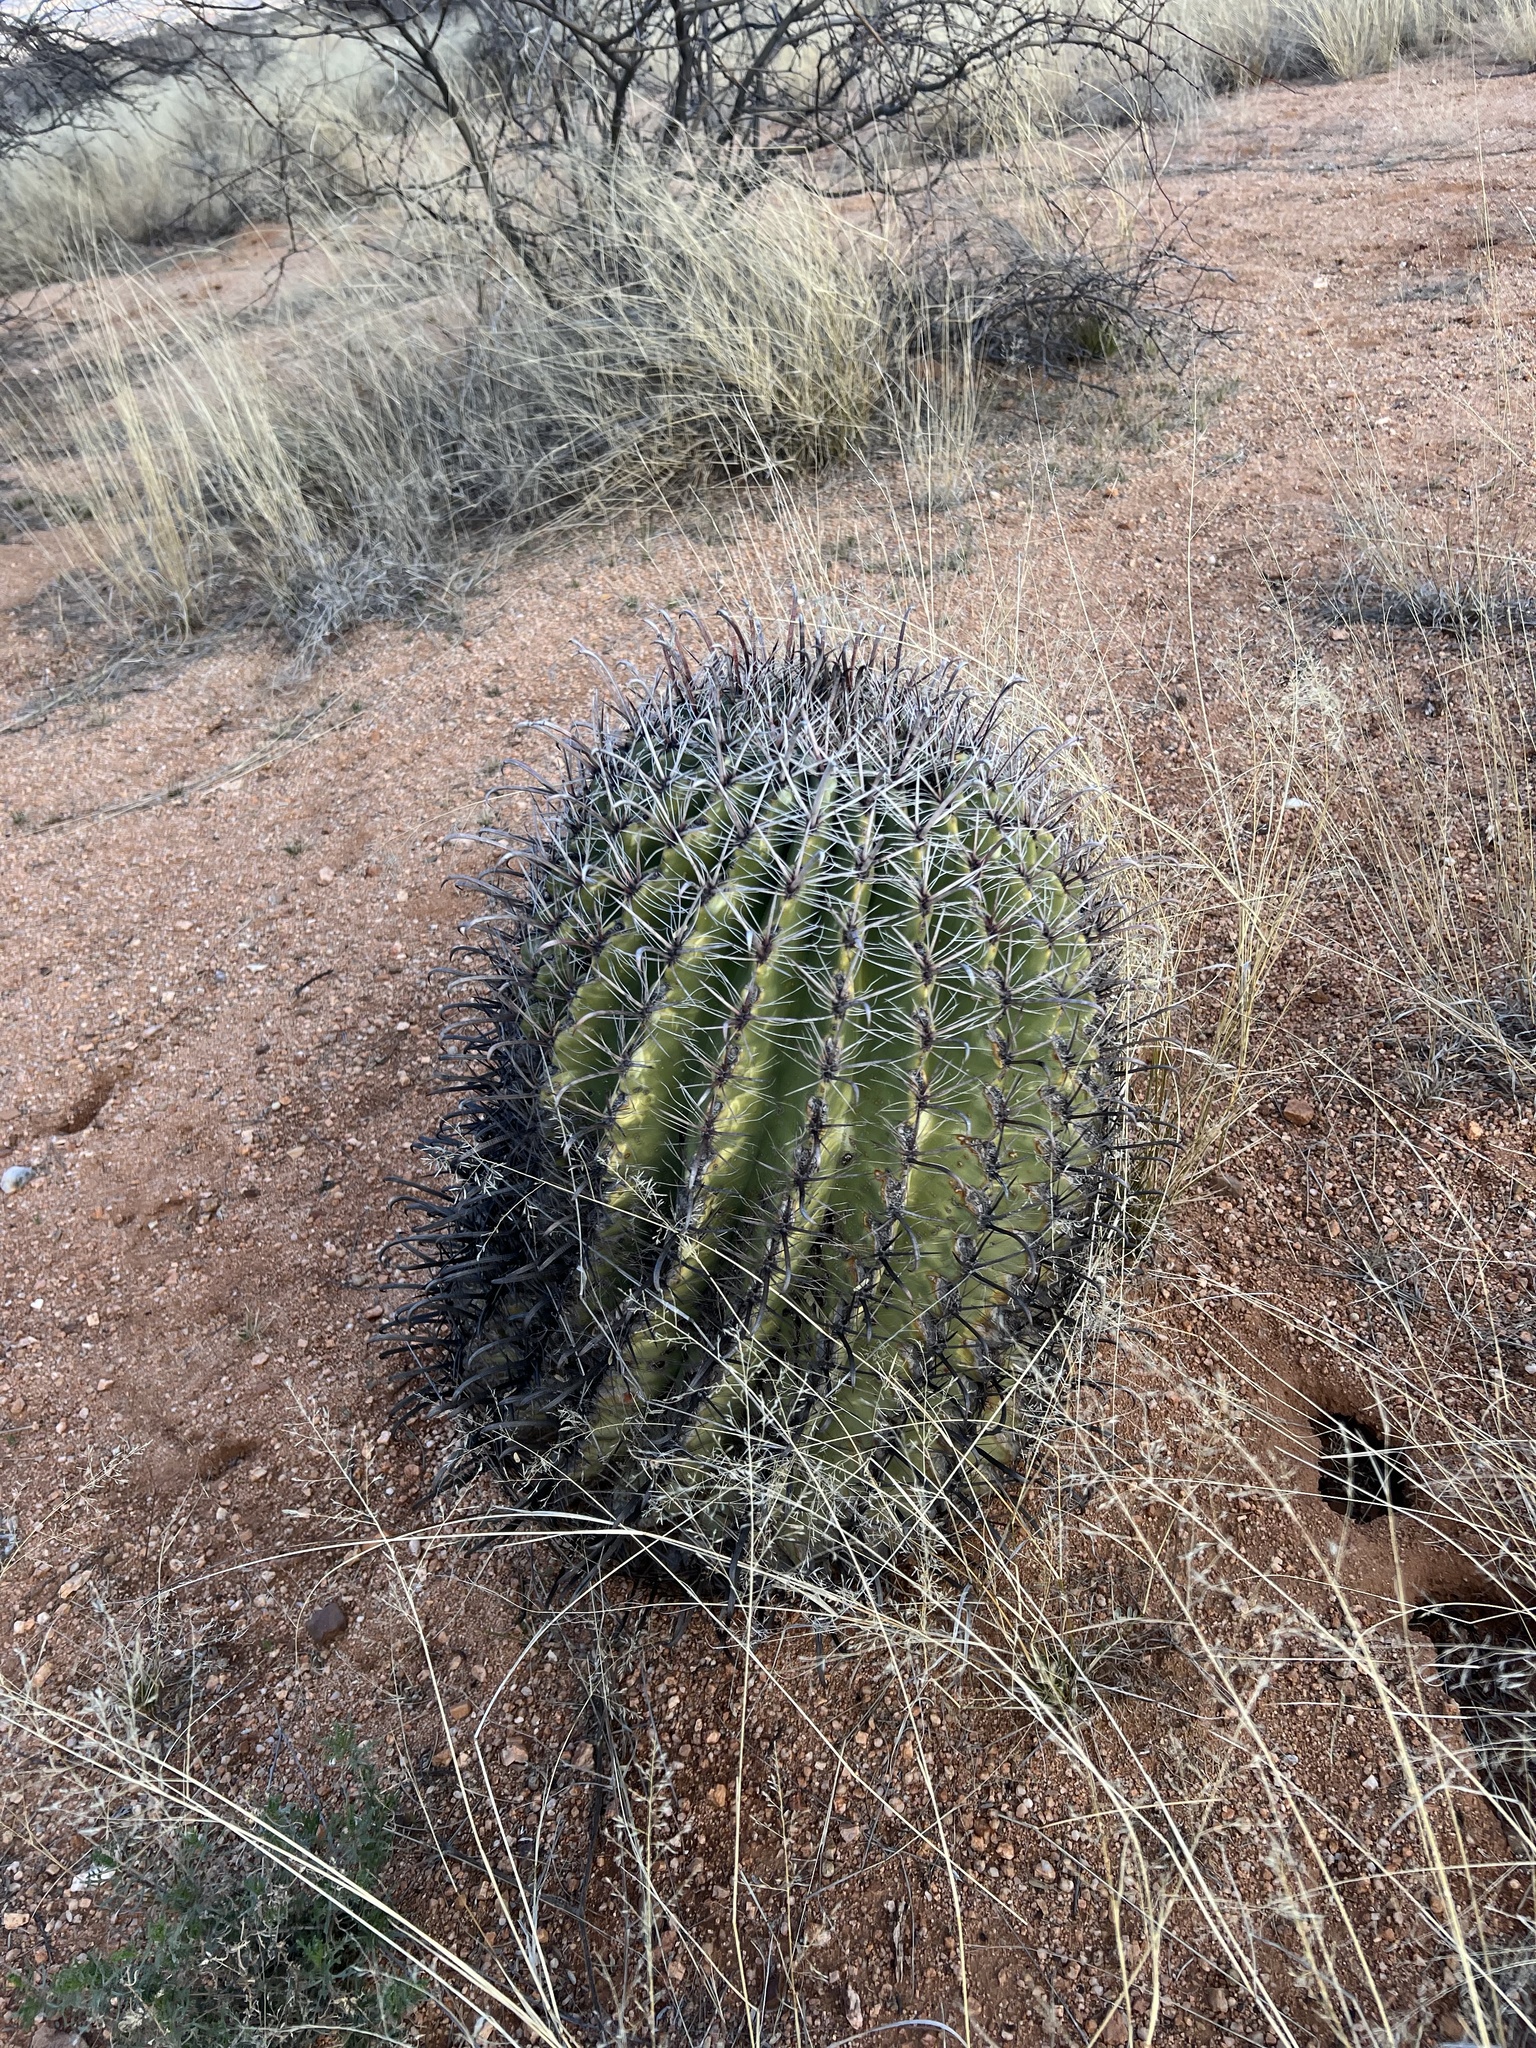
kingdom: Plantae
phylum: Tracheophyta
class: Magnoliopsida
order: Caryophyllales
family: Cactaceae
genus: Ferocactus
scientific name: Ferocactus wislizeni
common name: Candy barrel cactus
